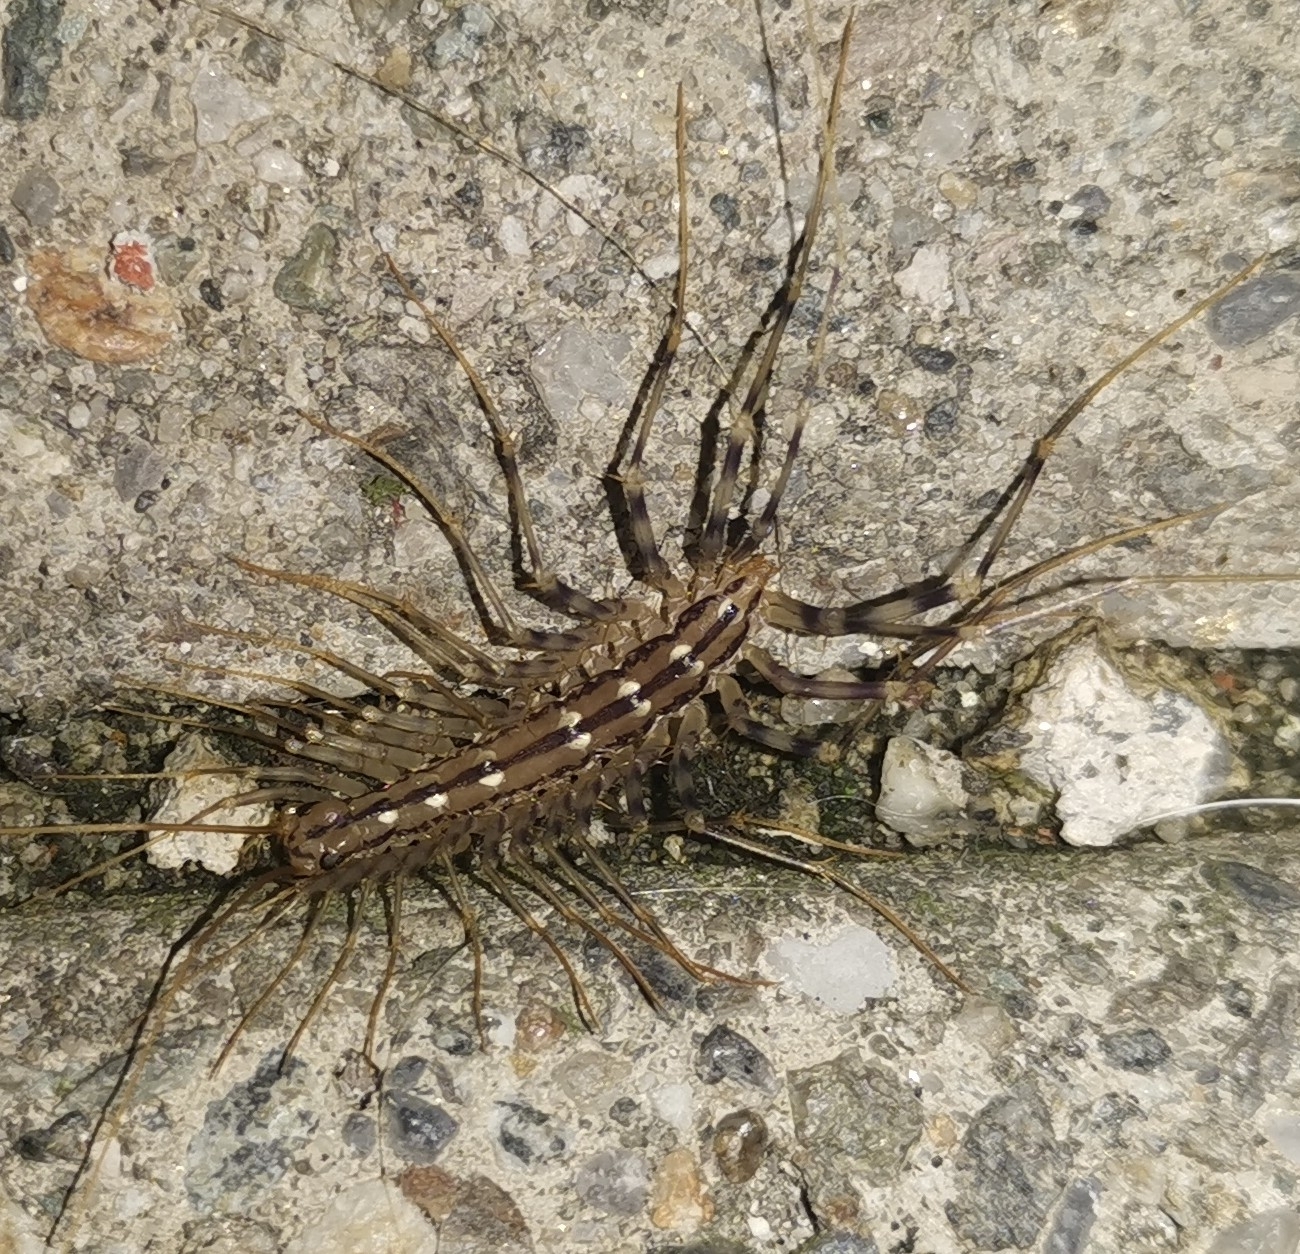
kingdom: Animalia
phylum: Arthropoda
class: Chilopoda
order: Scutigeromorpha
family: Scutigeridae
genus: Scutigera
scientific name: Scutigera coleoptrata
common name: House centipede
